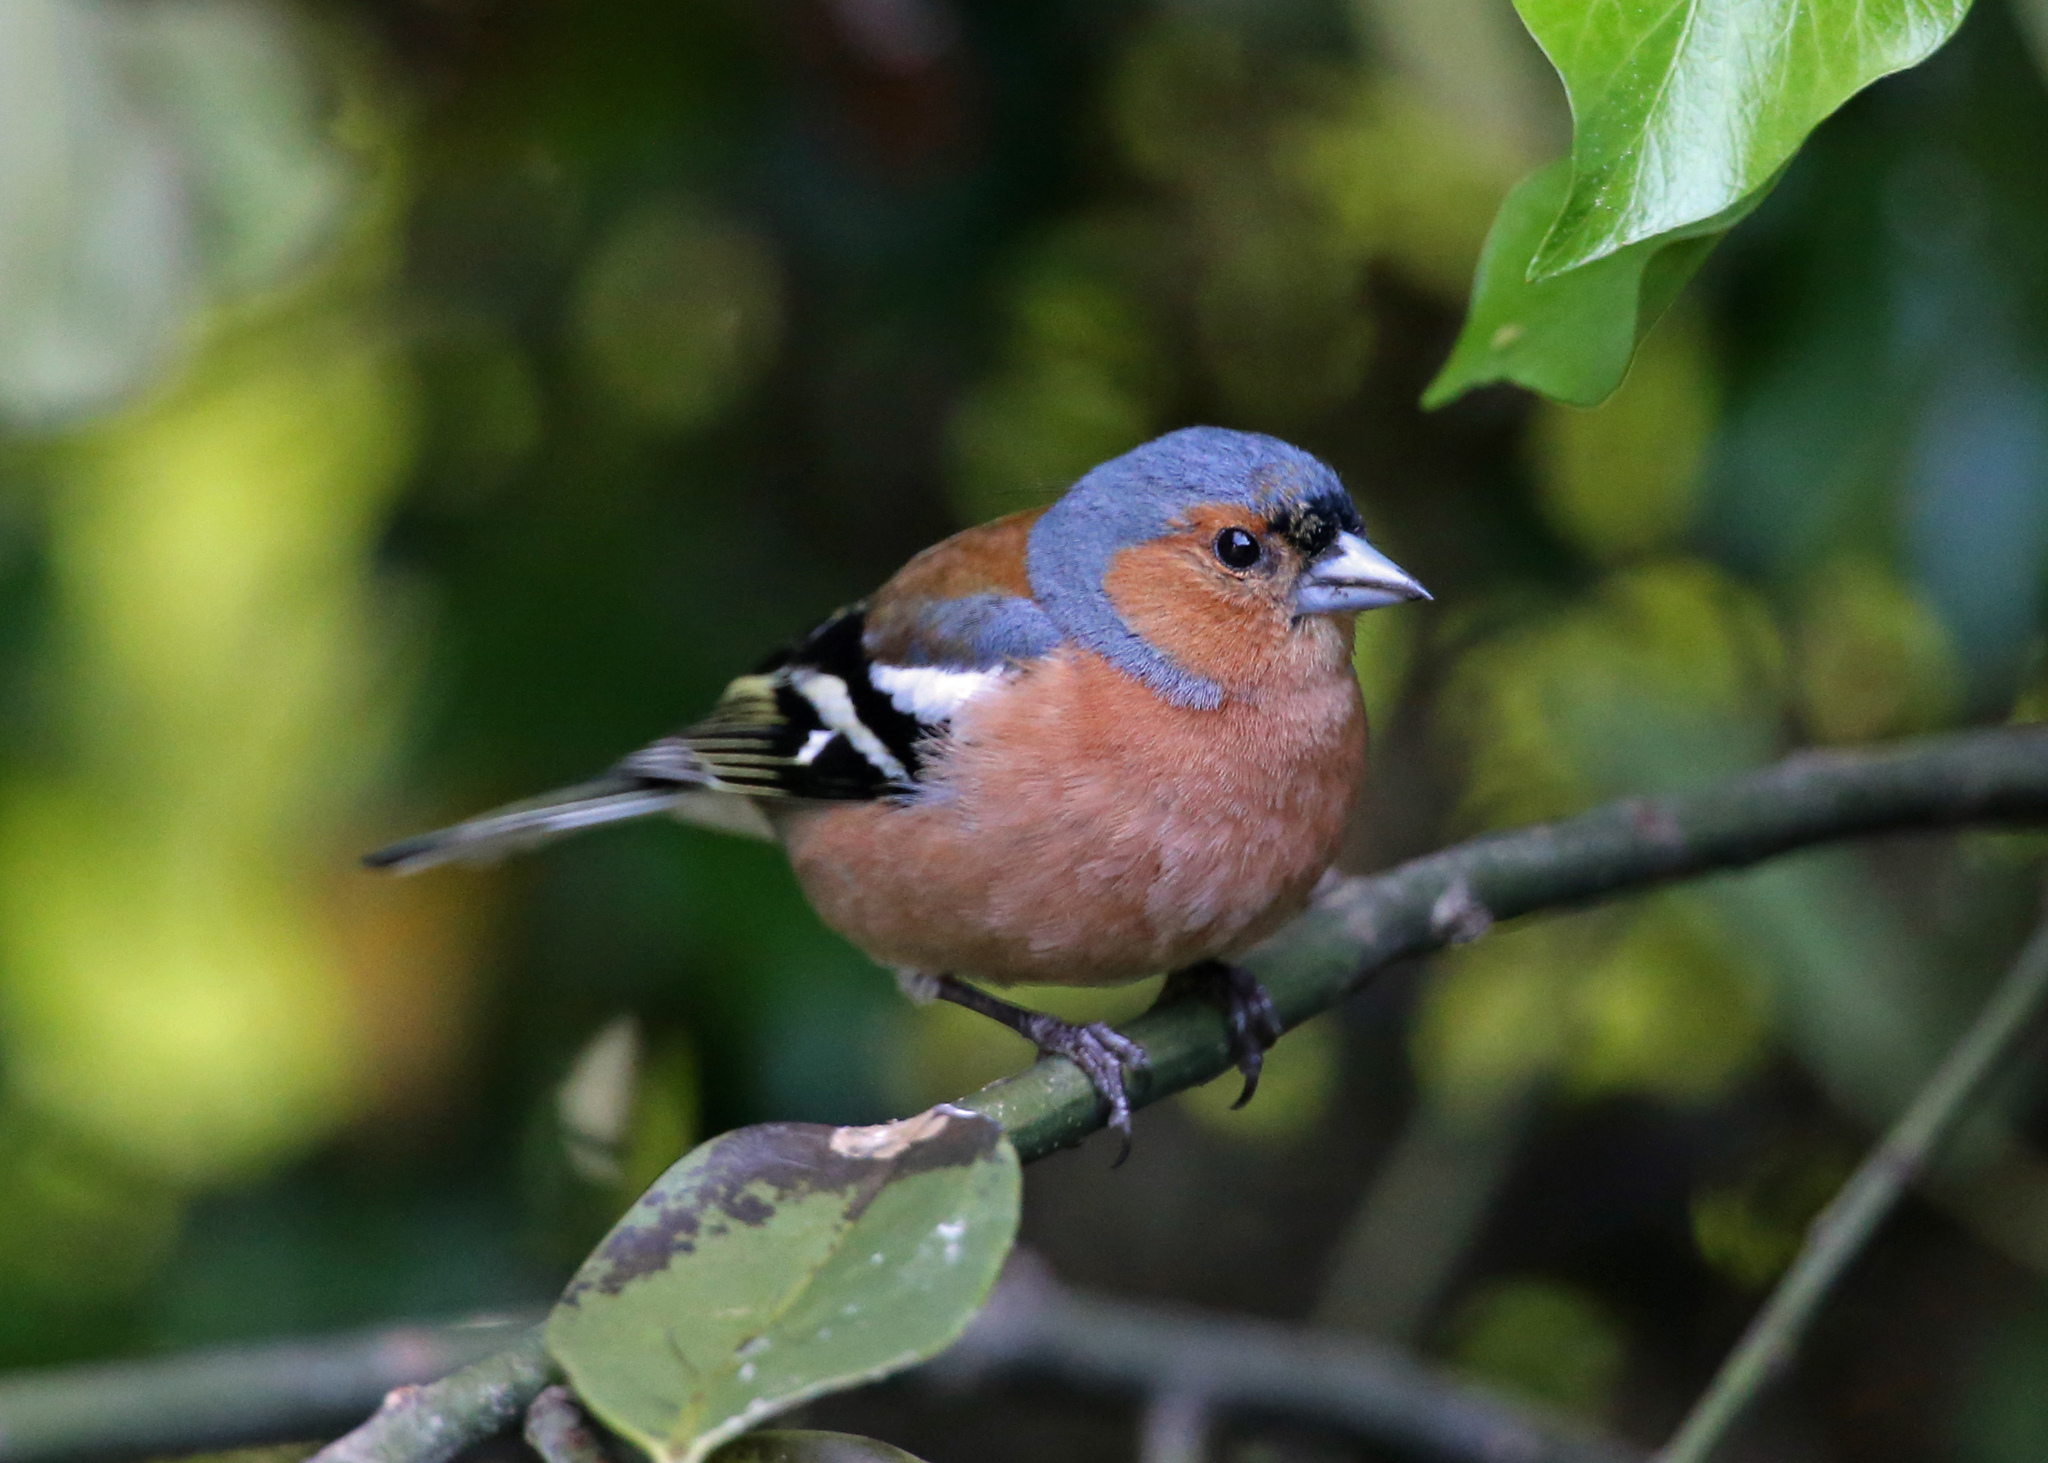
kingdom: Animalia
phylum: Chordata
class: Aves
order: Passeriformes
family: Fringillidae
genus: Fringilla
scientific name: Fringilla coelebs
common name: Common chaffinch
